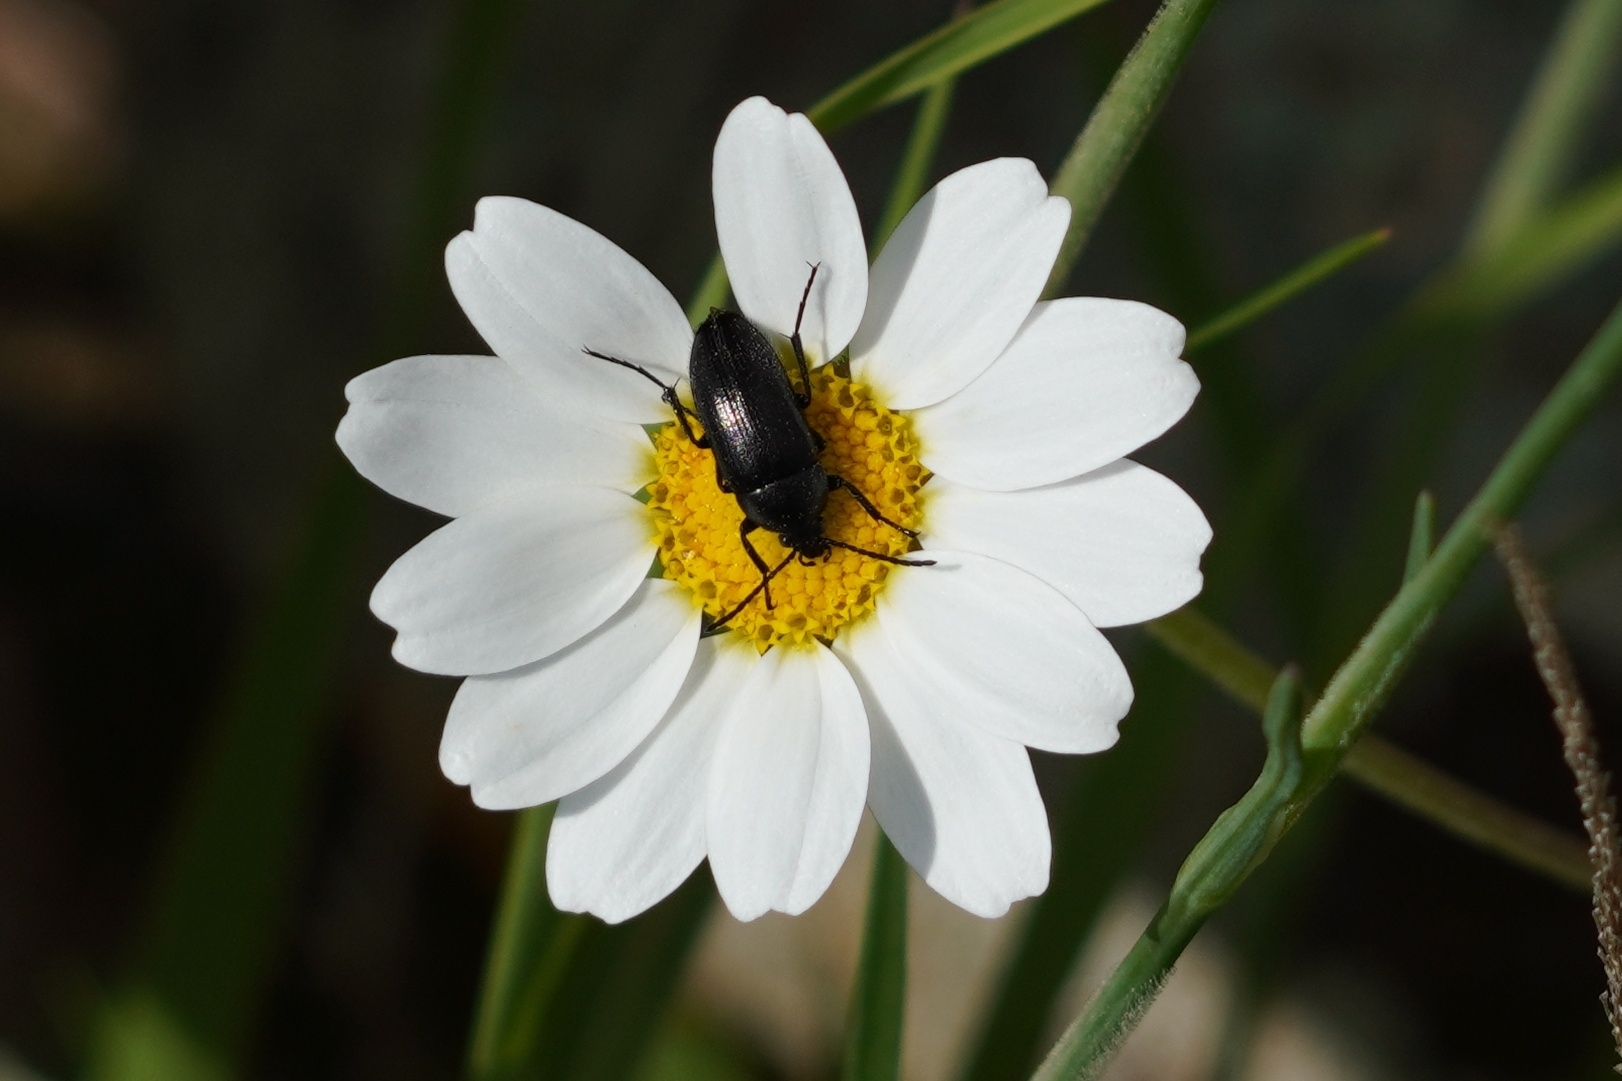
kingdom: Animalia
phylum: Arthropoda
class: Insecta
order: Coleoptera
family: Tenebrionidae
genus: Podonta
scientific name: Podonta aubei
